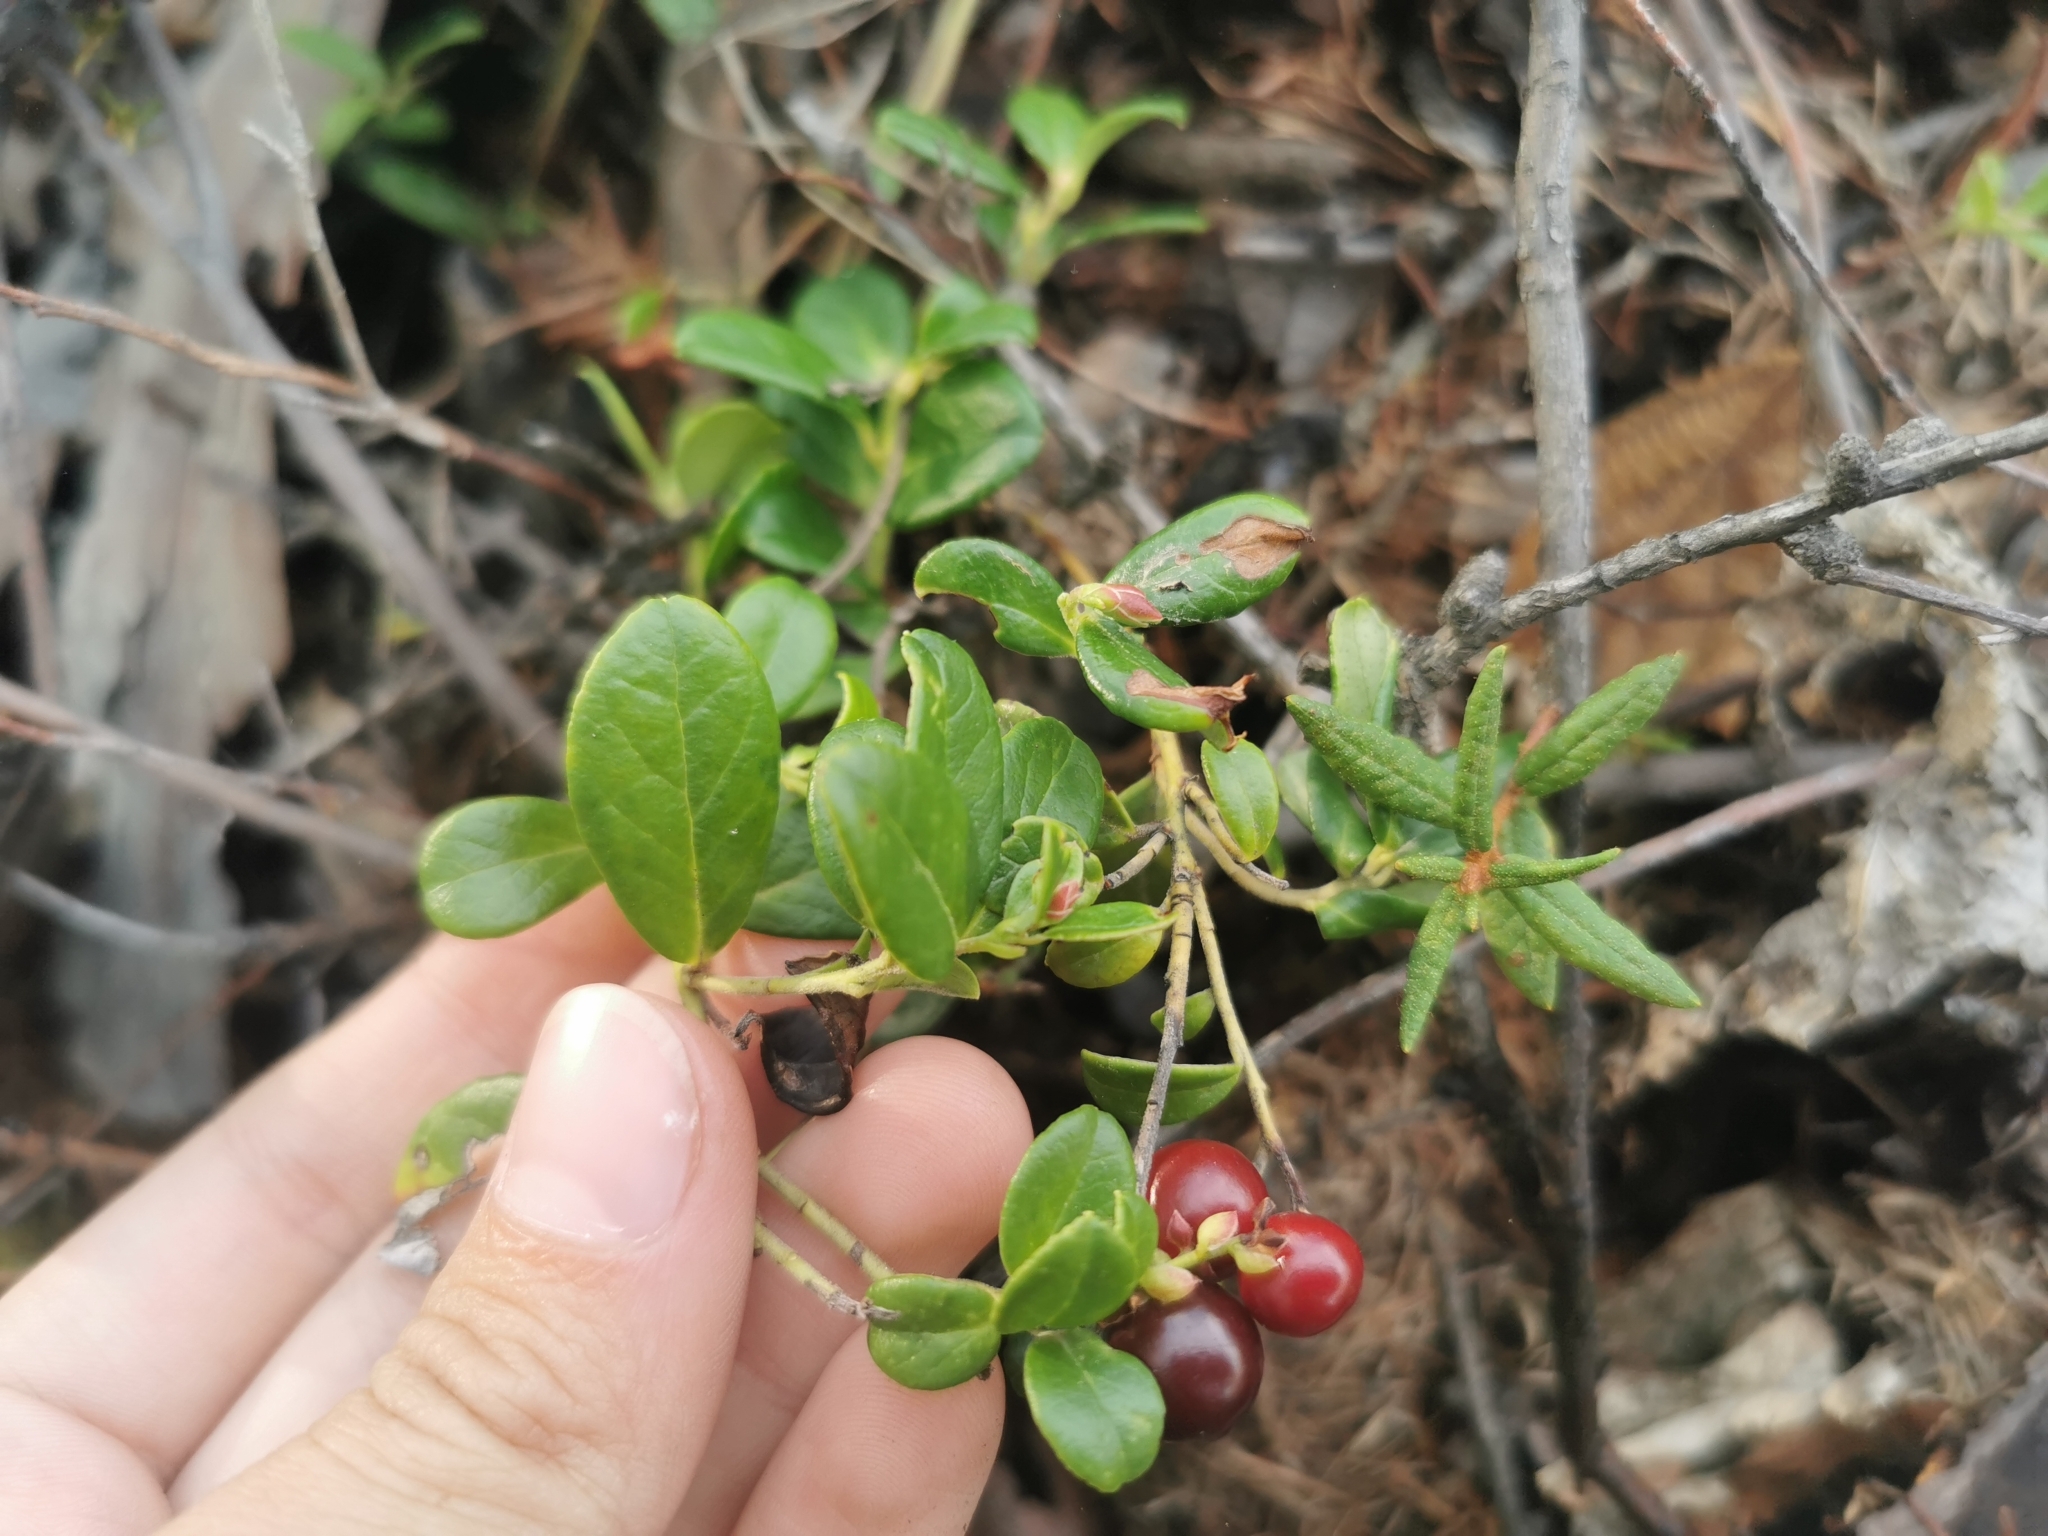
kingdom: Plantae
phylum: Tracheophyta
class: Magnoliopsida
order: Ericales
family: Ericaceae
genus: Vaccinium
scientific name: Vaccinium vitis-idaea
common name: Cowberry
